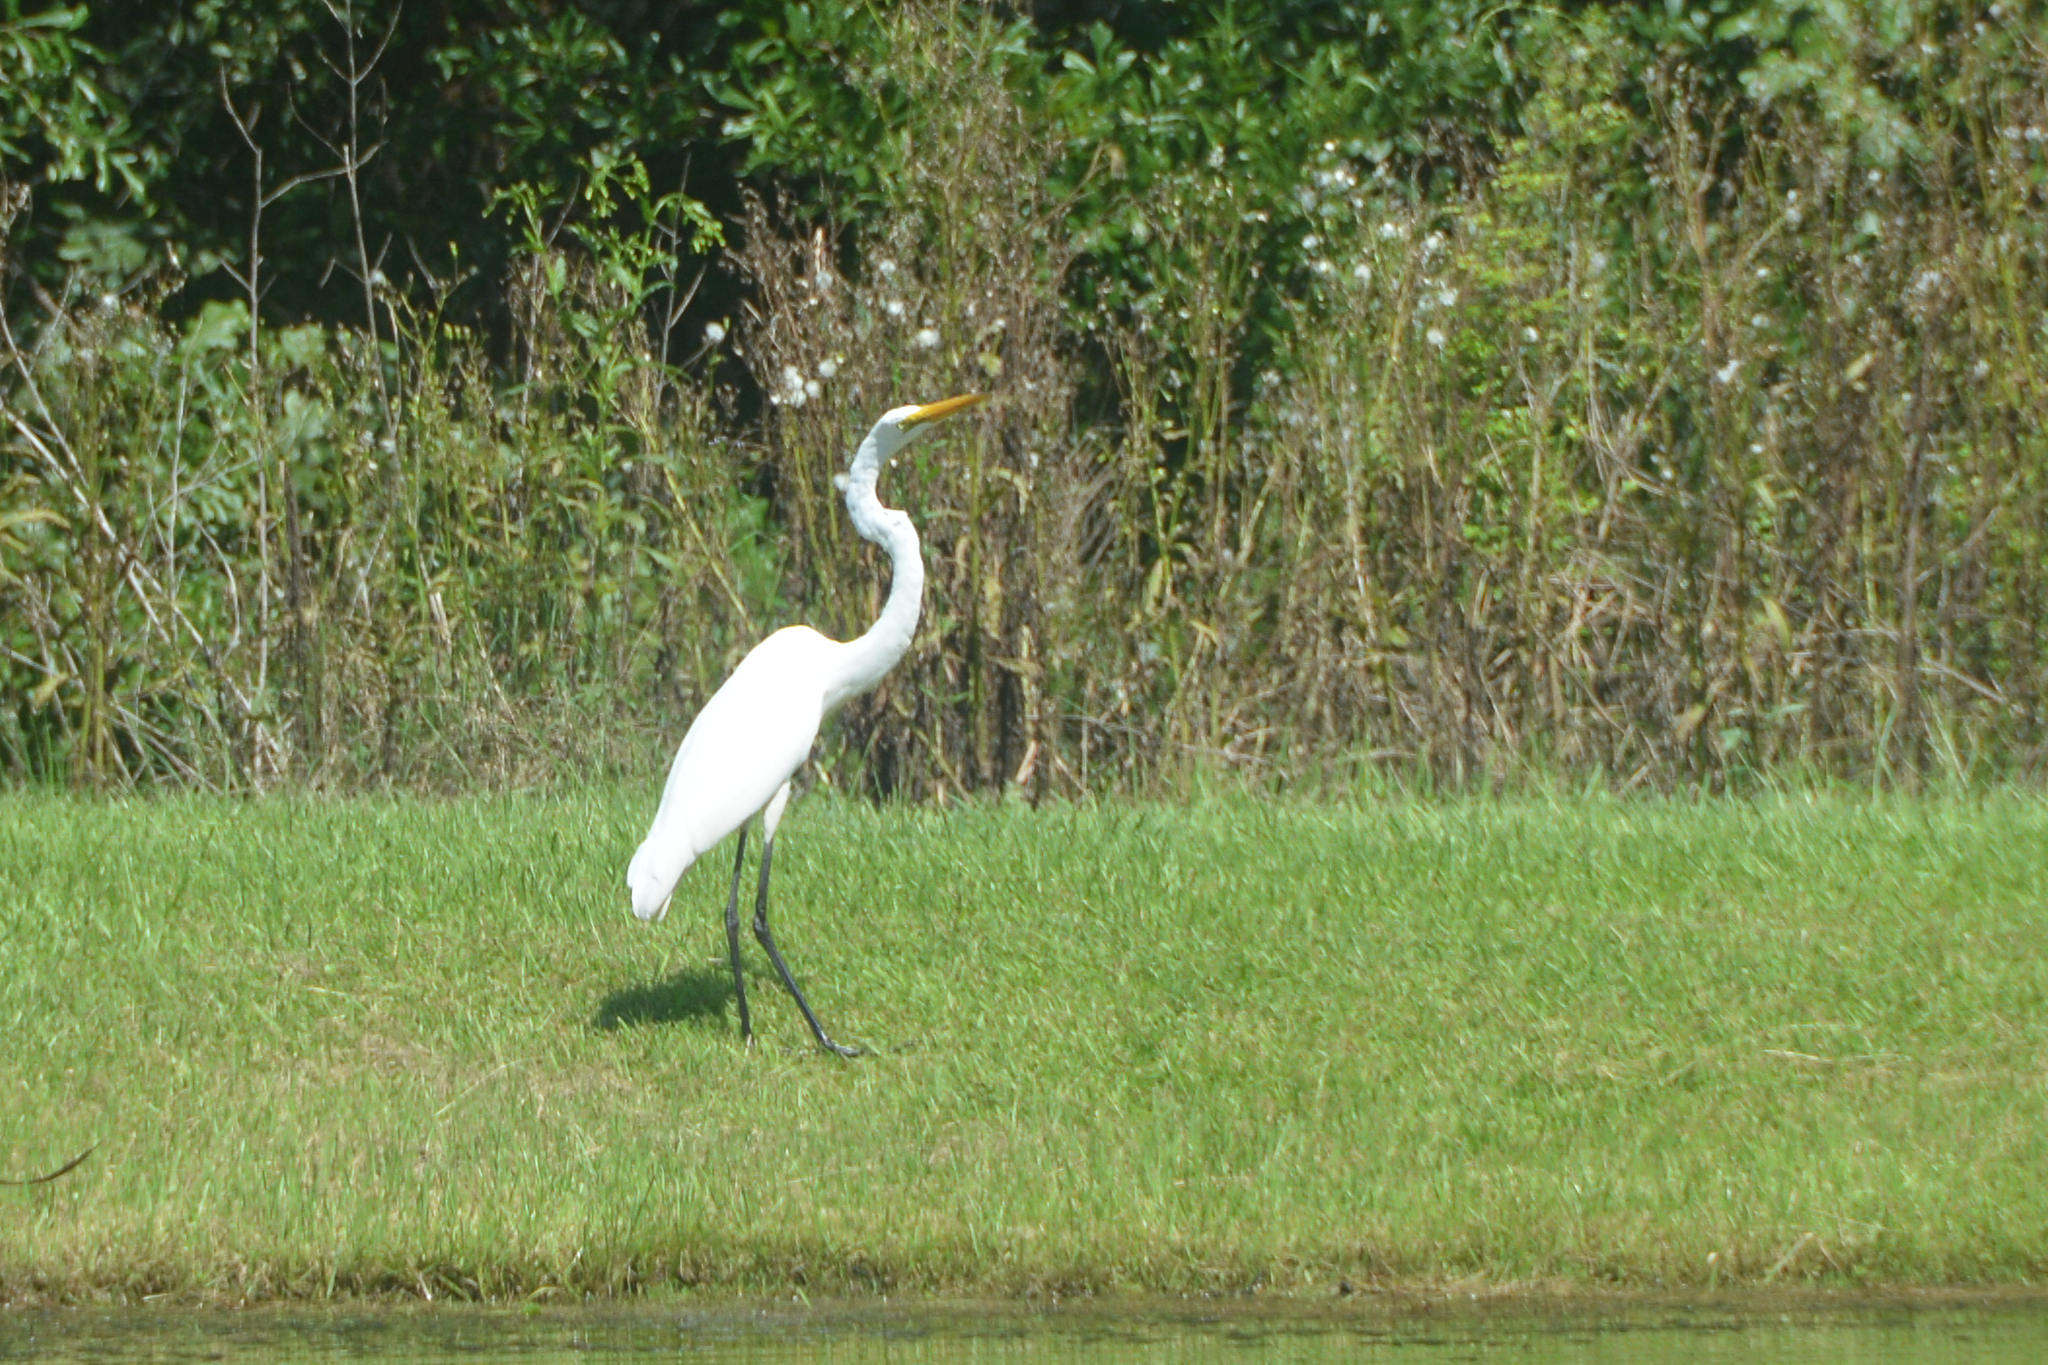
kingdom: Animalia
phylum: Chordata
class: Aves
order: Pelecaniformes
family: Ardeidae
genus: Ardea
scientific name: Ardea alba
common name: Great egret
